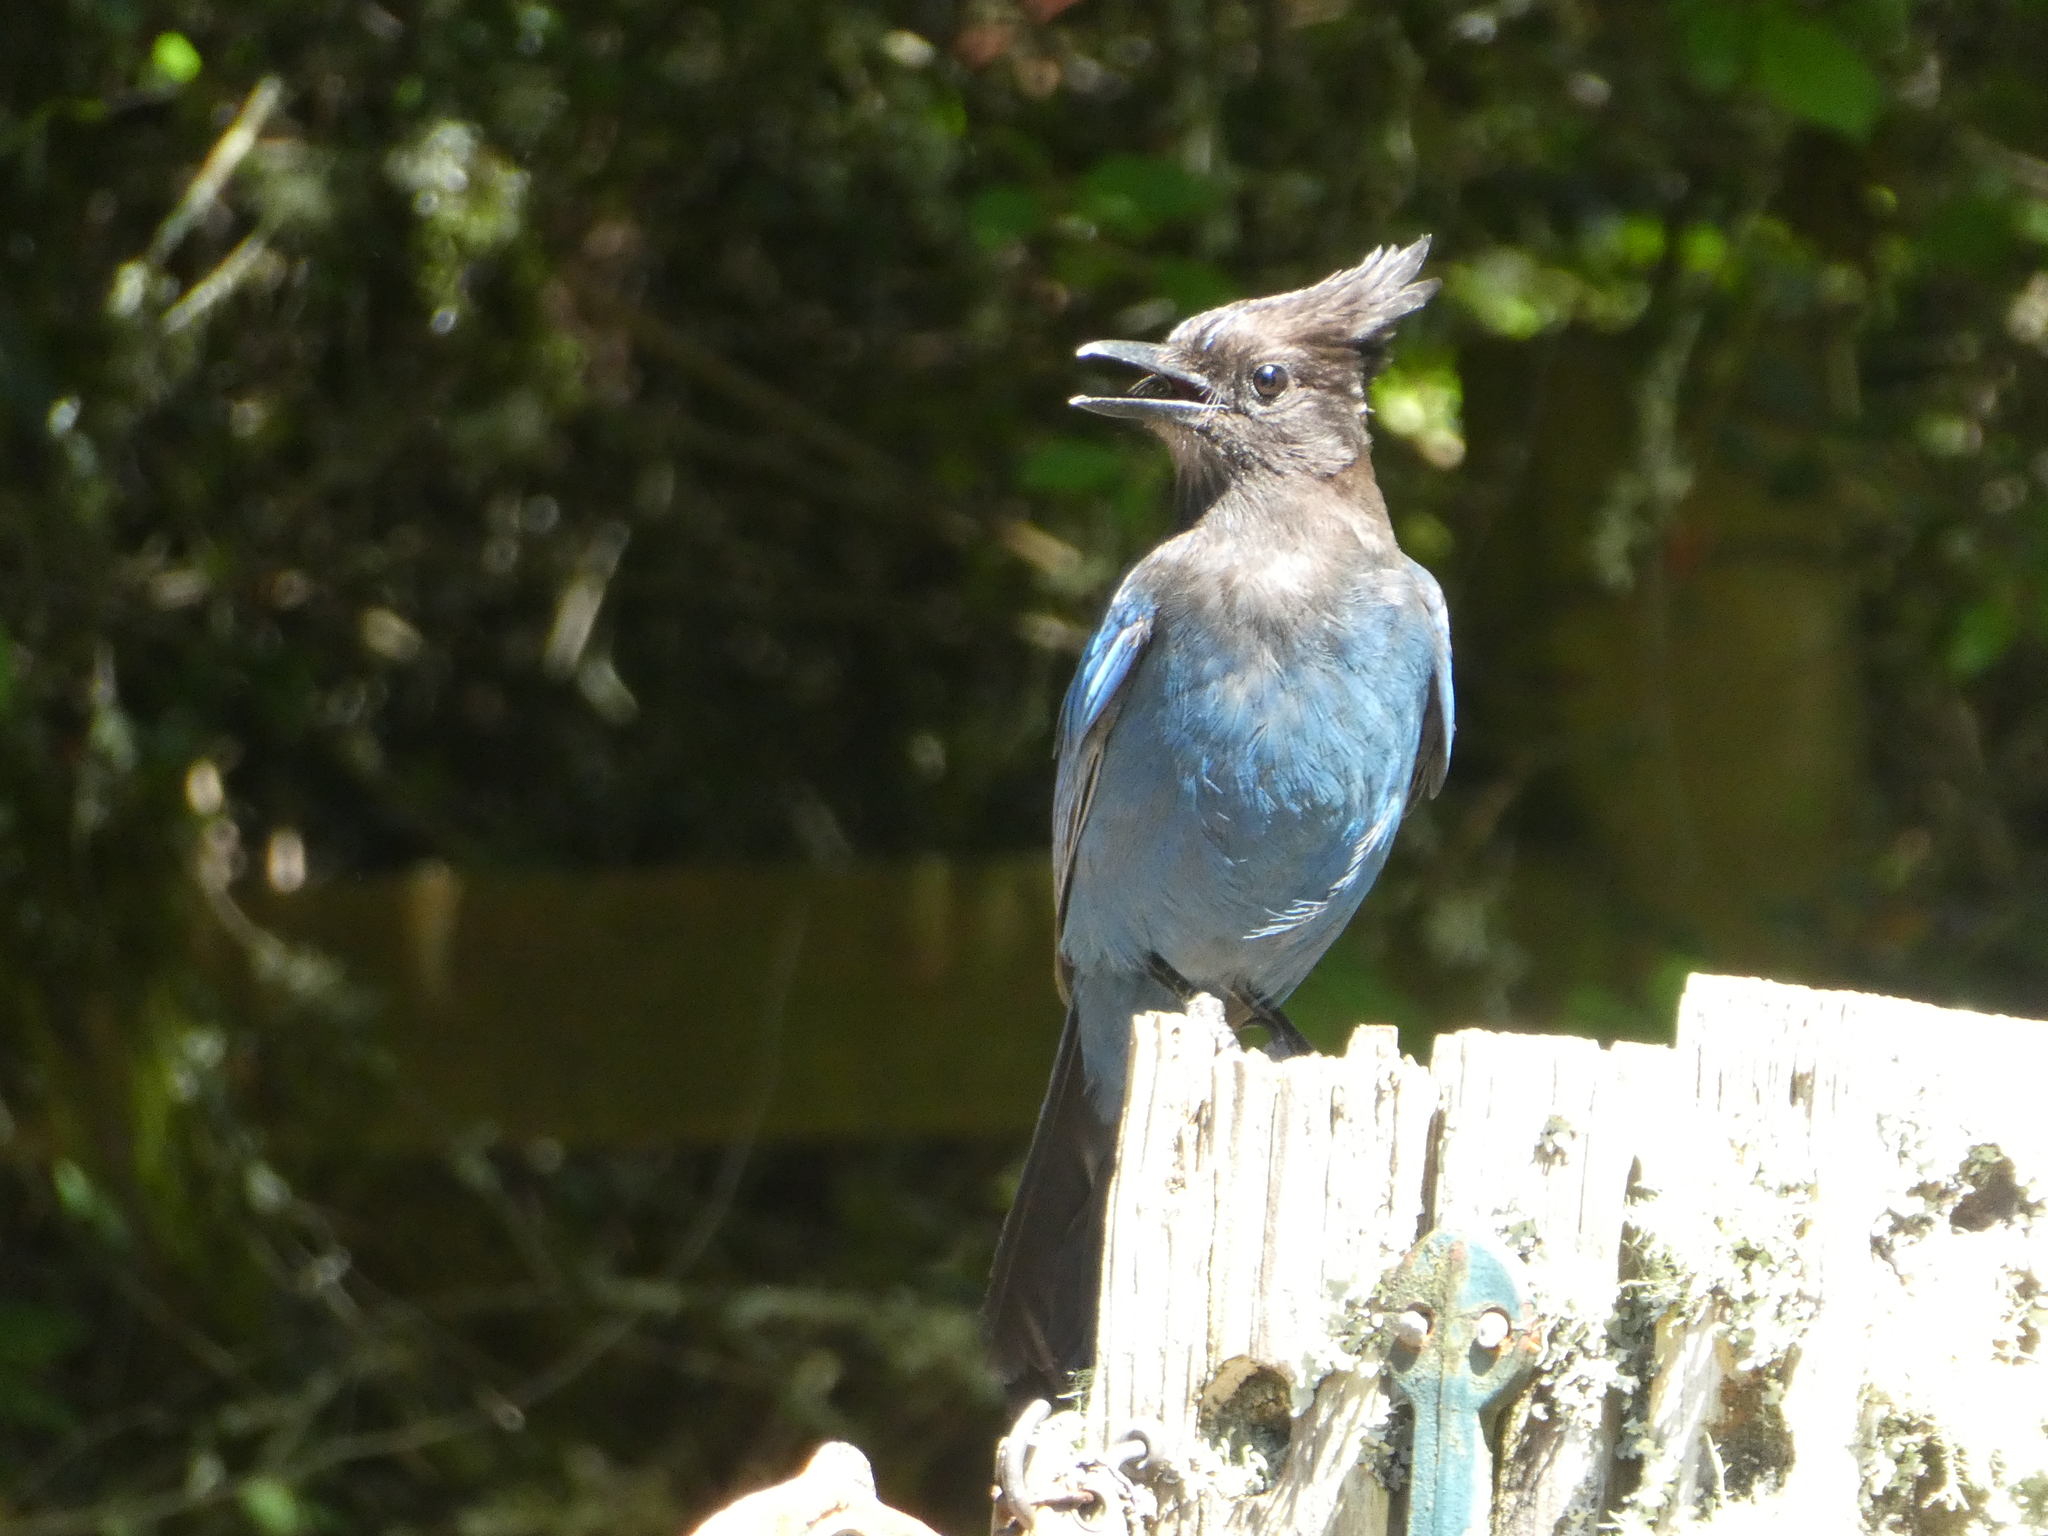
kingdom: Animalia
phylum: Chordata
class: Aves
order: Passeriformes
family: Corvidae
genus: Cyanocitta
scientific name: Cyanocitta stelleri
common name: Steller's jay
